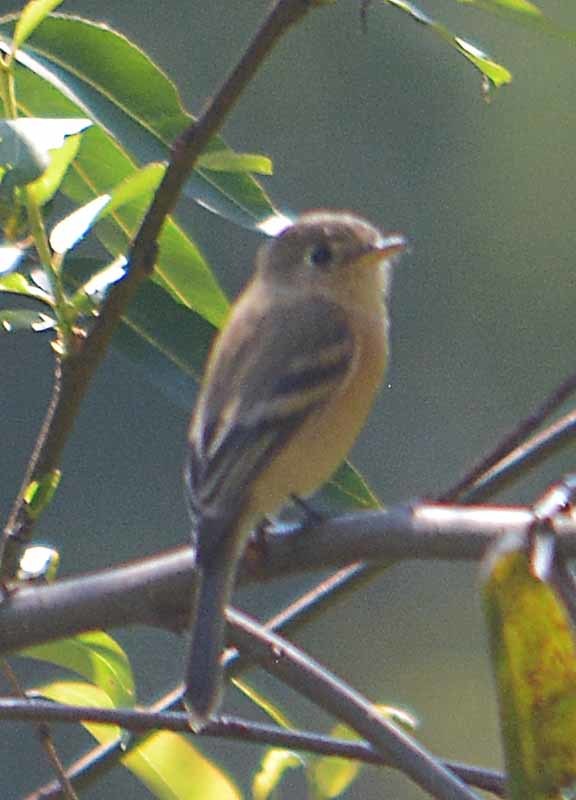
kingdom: Animalia
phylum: Chordata
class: Aves
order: Passeriformes
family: Tyrannidae
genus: Empidonax
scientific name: Empidonax fulvifrons
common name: Buff-breasted flycatcher
